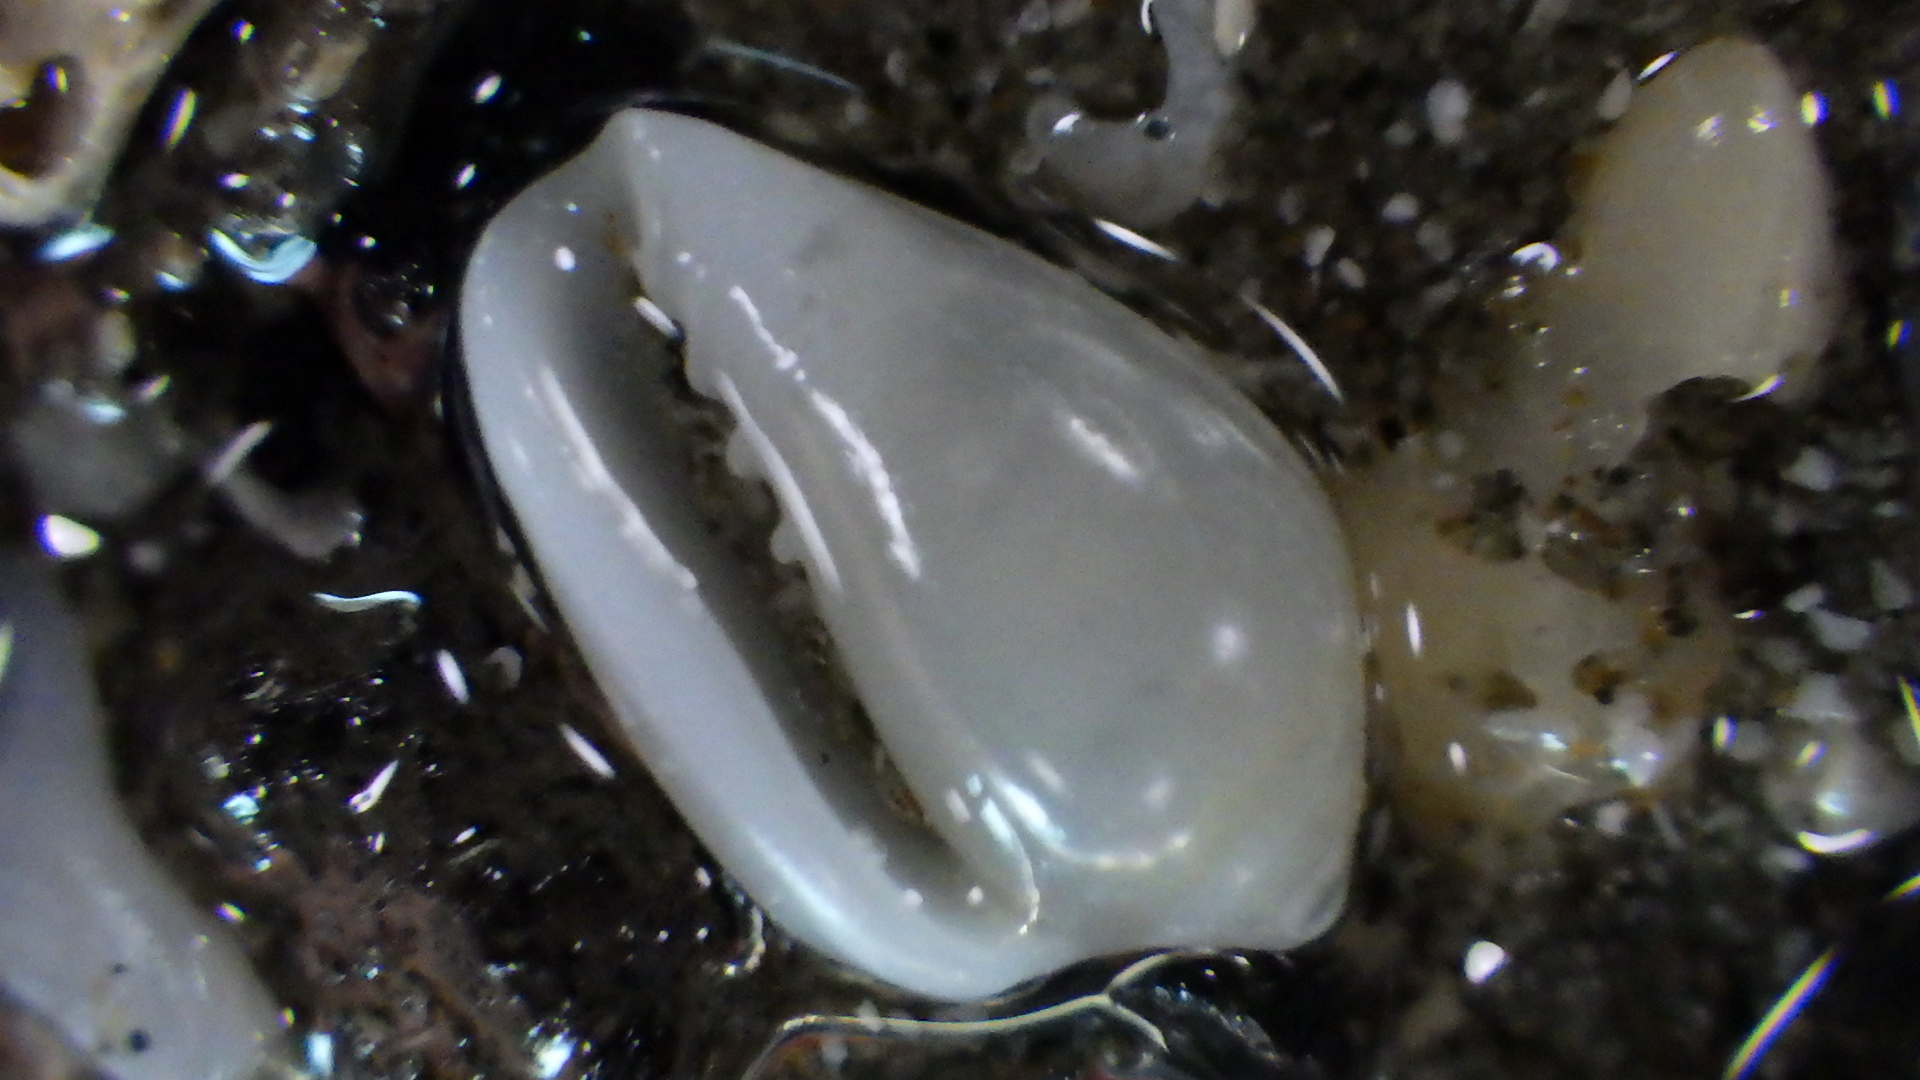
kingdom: Animalia
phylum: Mollusca
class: Gastropoda
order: Neogastropoda
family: Marginellidae
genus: Mesoginella
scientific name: Mesoginella koma
